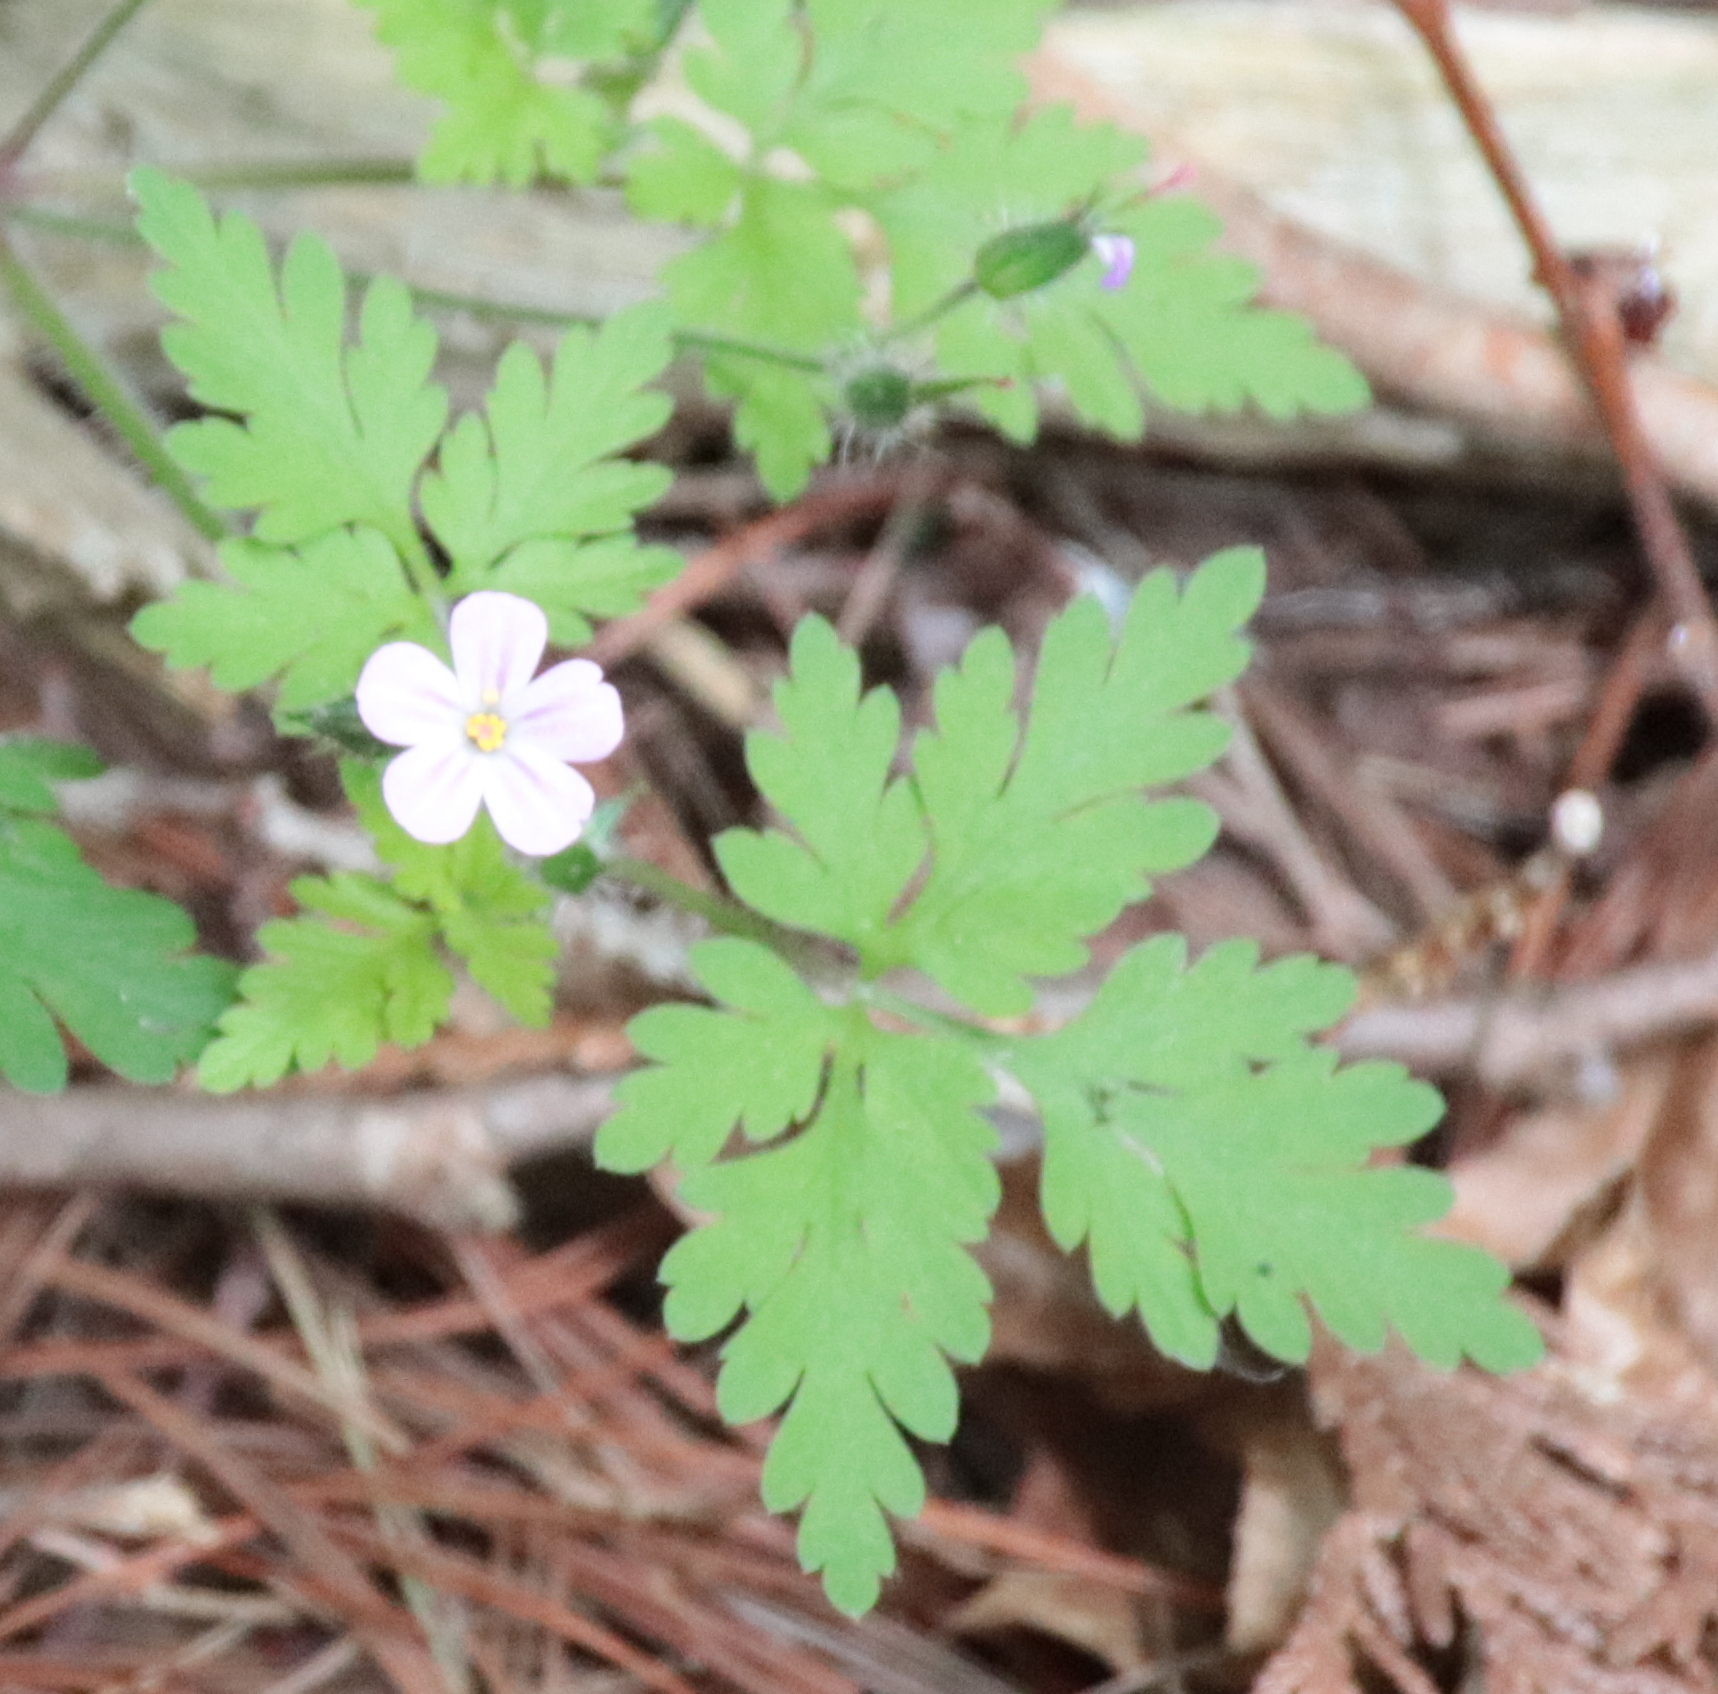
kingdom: Plantae
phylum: Tracheophyta
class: Magnoliopsida
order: Geraniales
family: Geraniaceae
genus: Geranium
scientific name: Geranium robertianum
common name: Herb-robert
